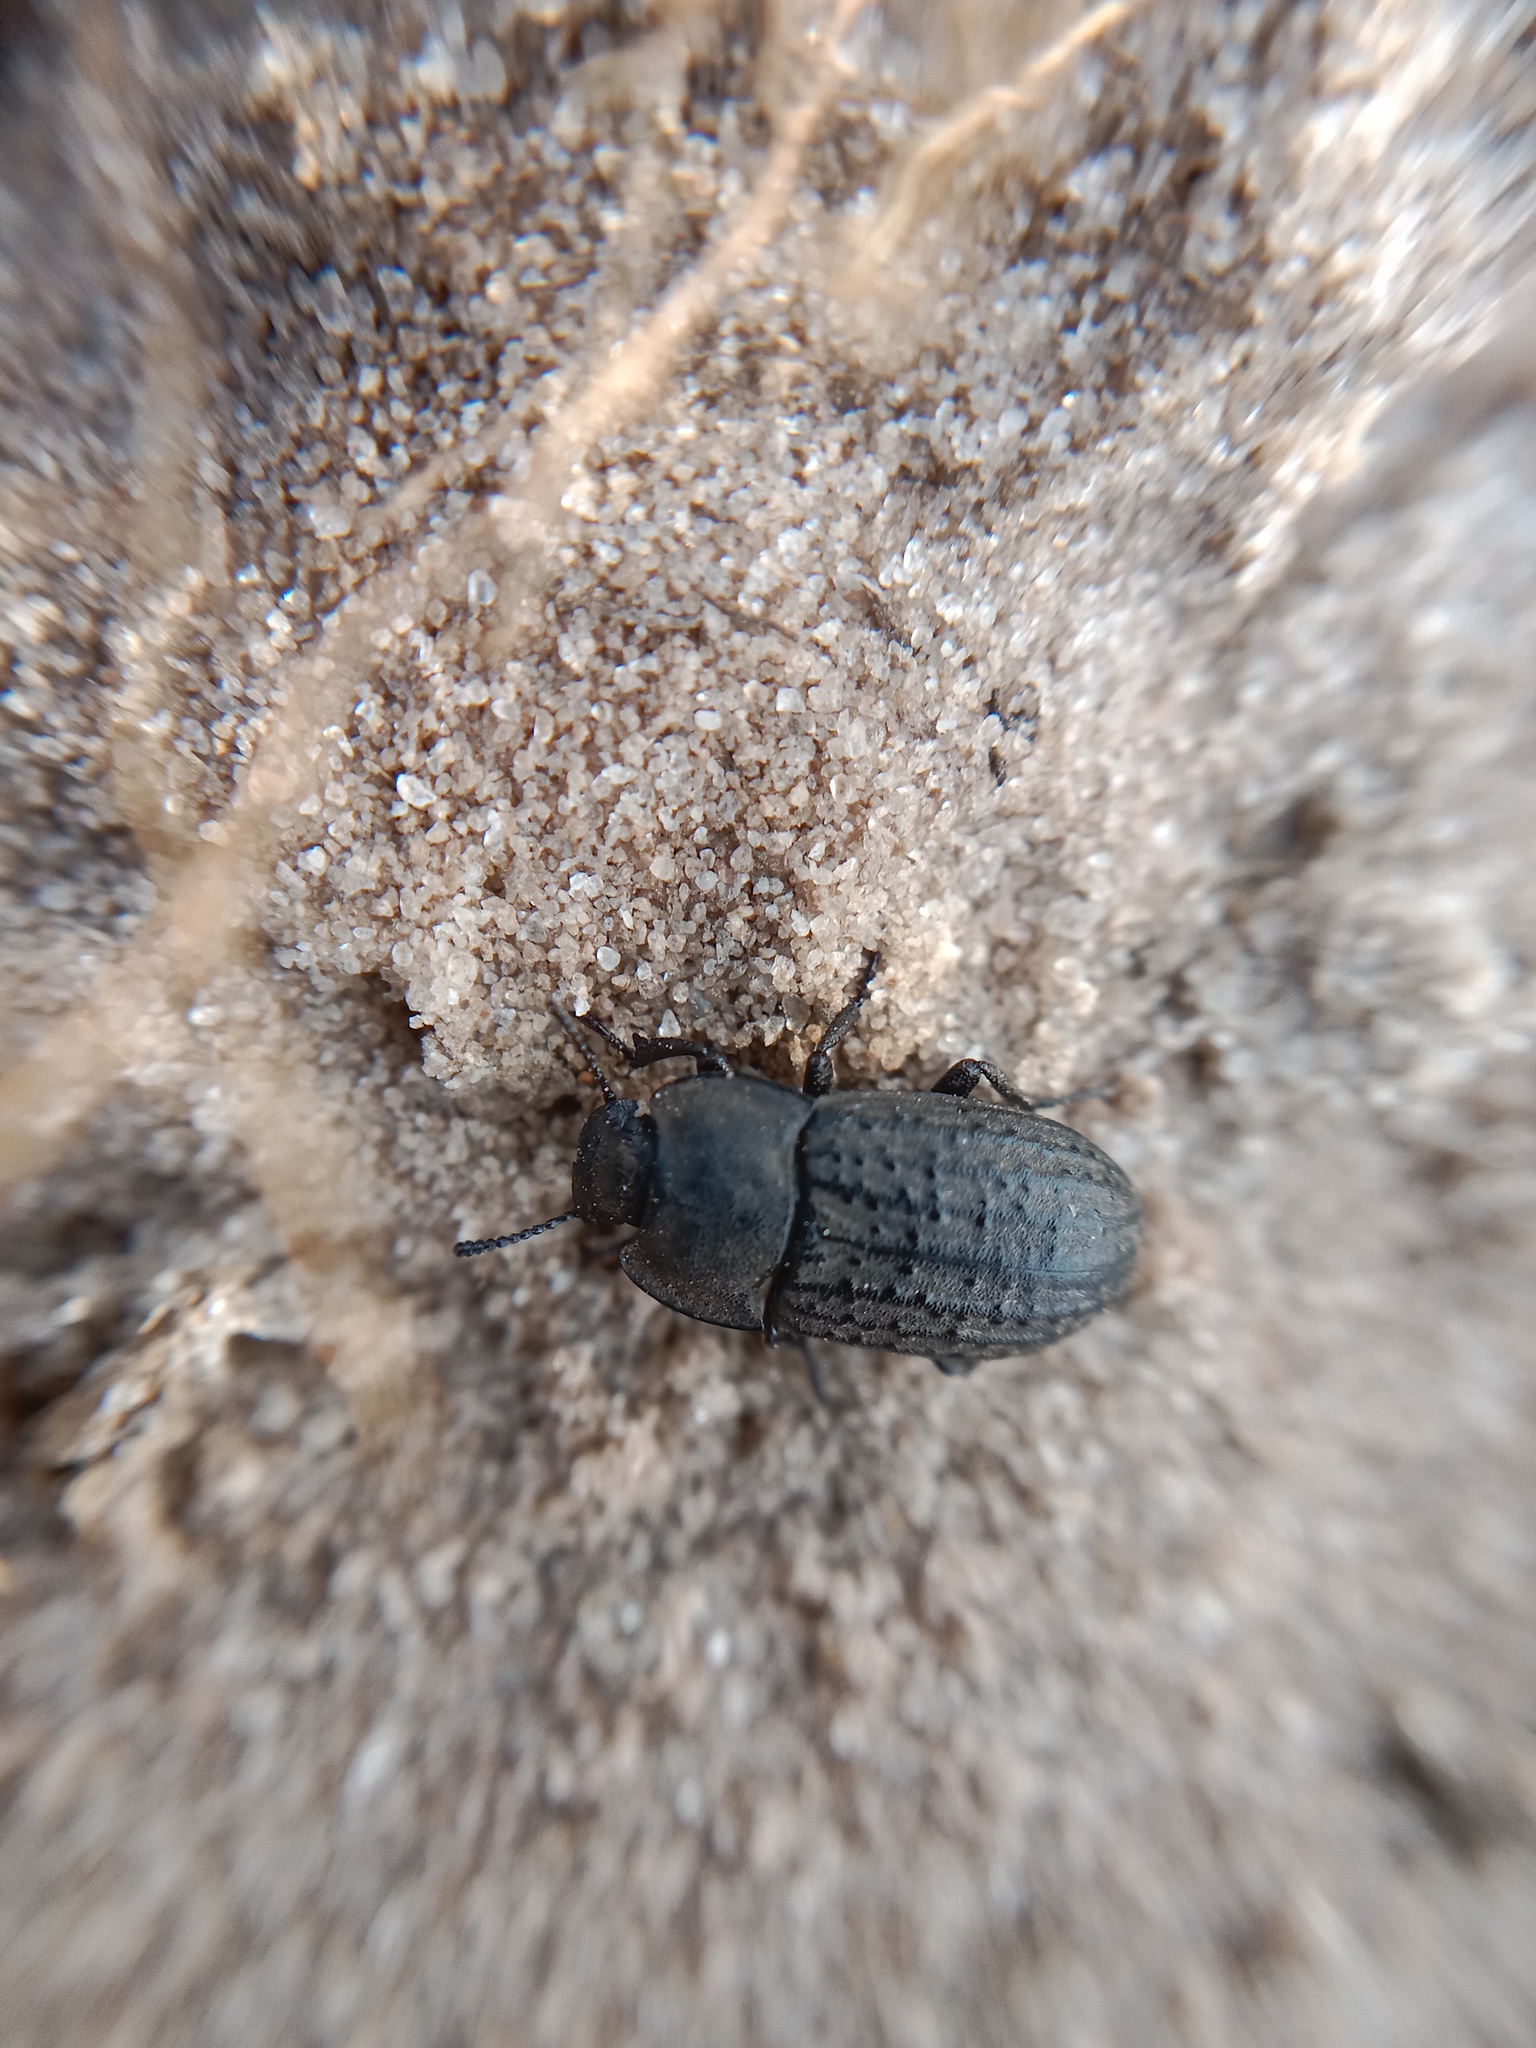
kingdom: Animalia
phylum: Arthropoda
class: Insecta
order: Coleoptera
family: Tenebrionidae
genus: Opatrum
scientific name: Opatrum sabulosum
